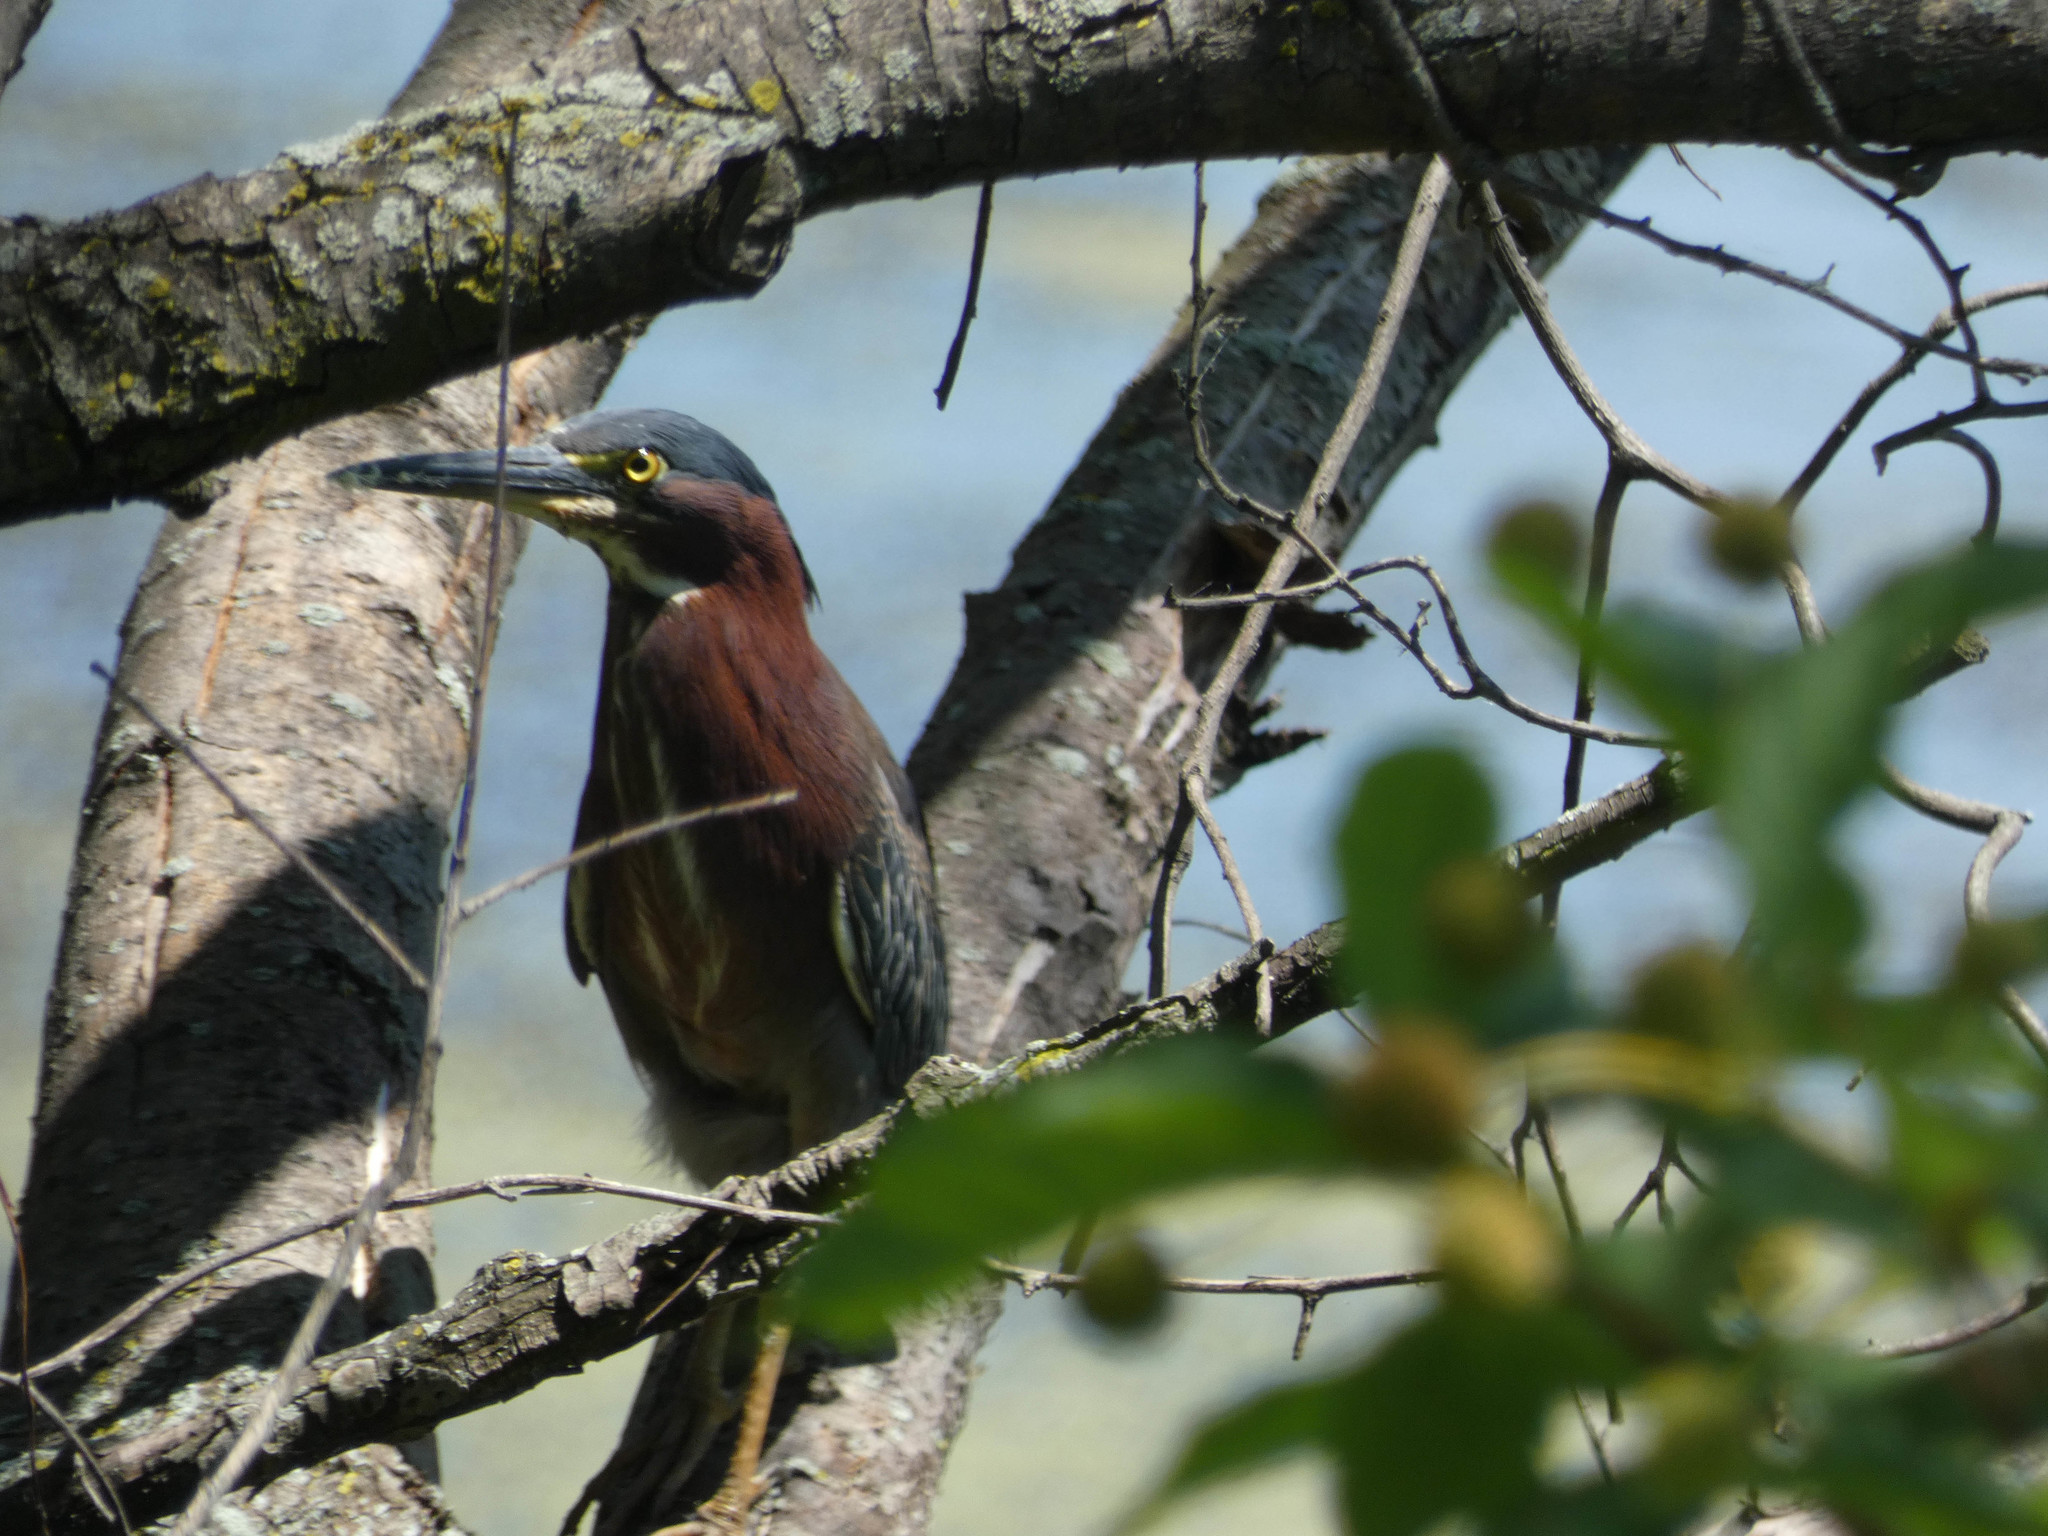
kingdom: Animalia
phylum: Chordata
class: Aves
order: Pelecaniformes
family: Ardeidae
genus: Butorides
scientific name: Butorides virescens
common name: Green heron
